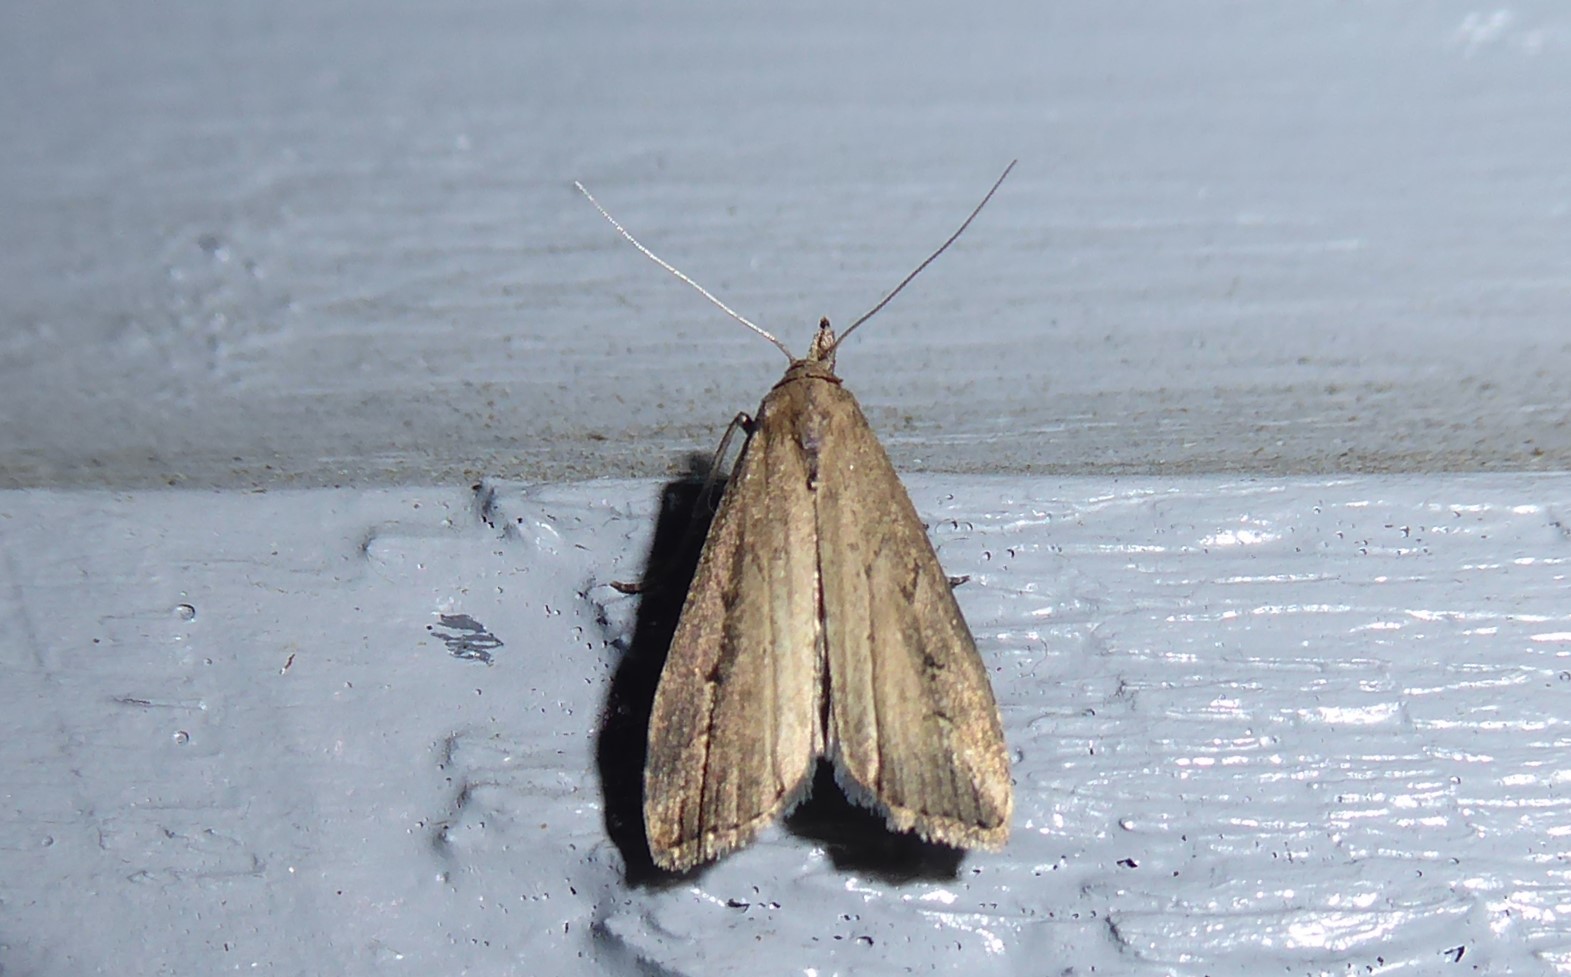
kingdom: Animalia
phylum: Arthropoda
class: Insecta
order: Lepidoptera
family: Erebidae
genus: Schrankia
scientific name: Schrankia costaestrigalis
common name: Pinion-streaked snout
